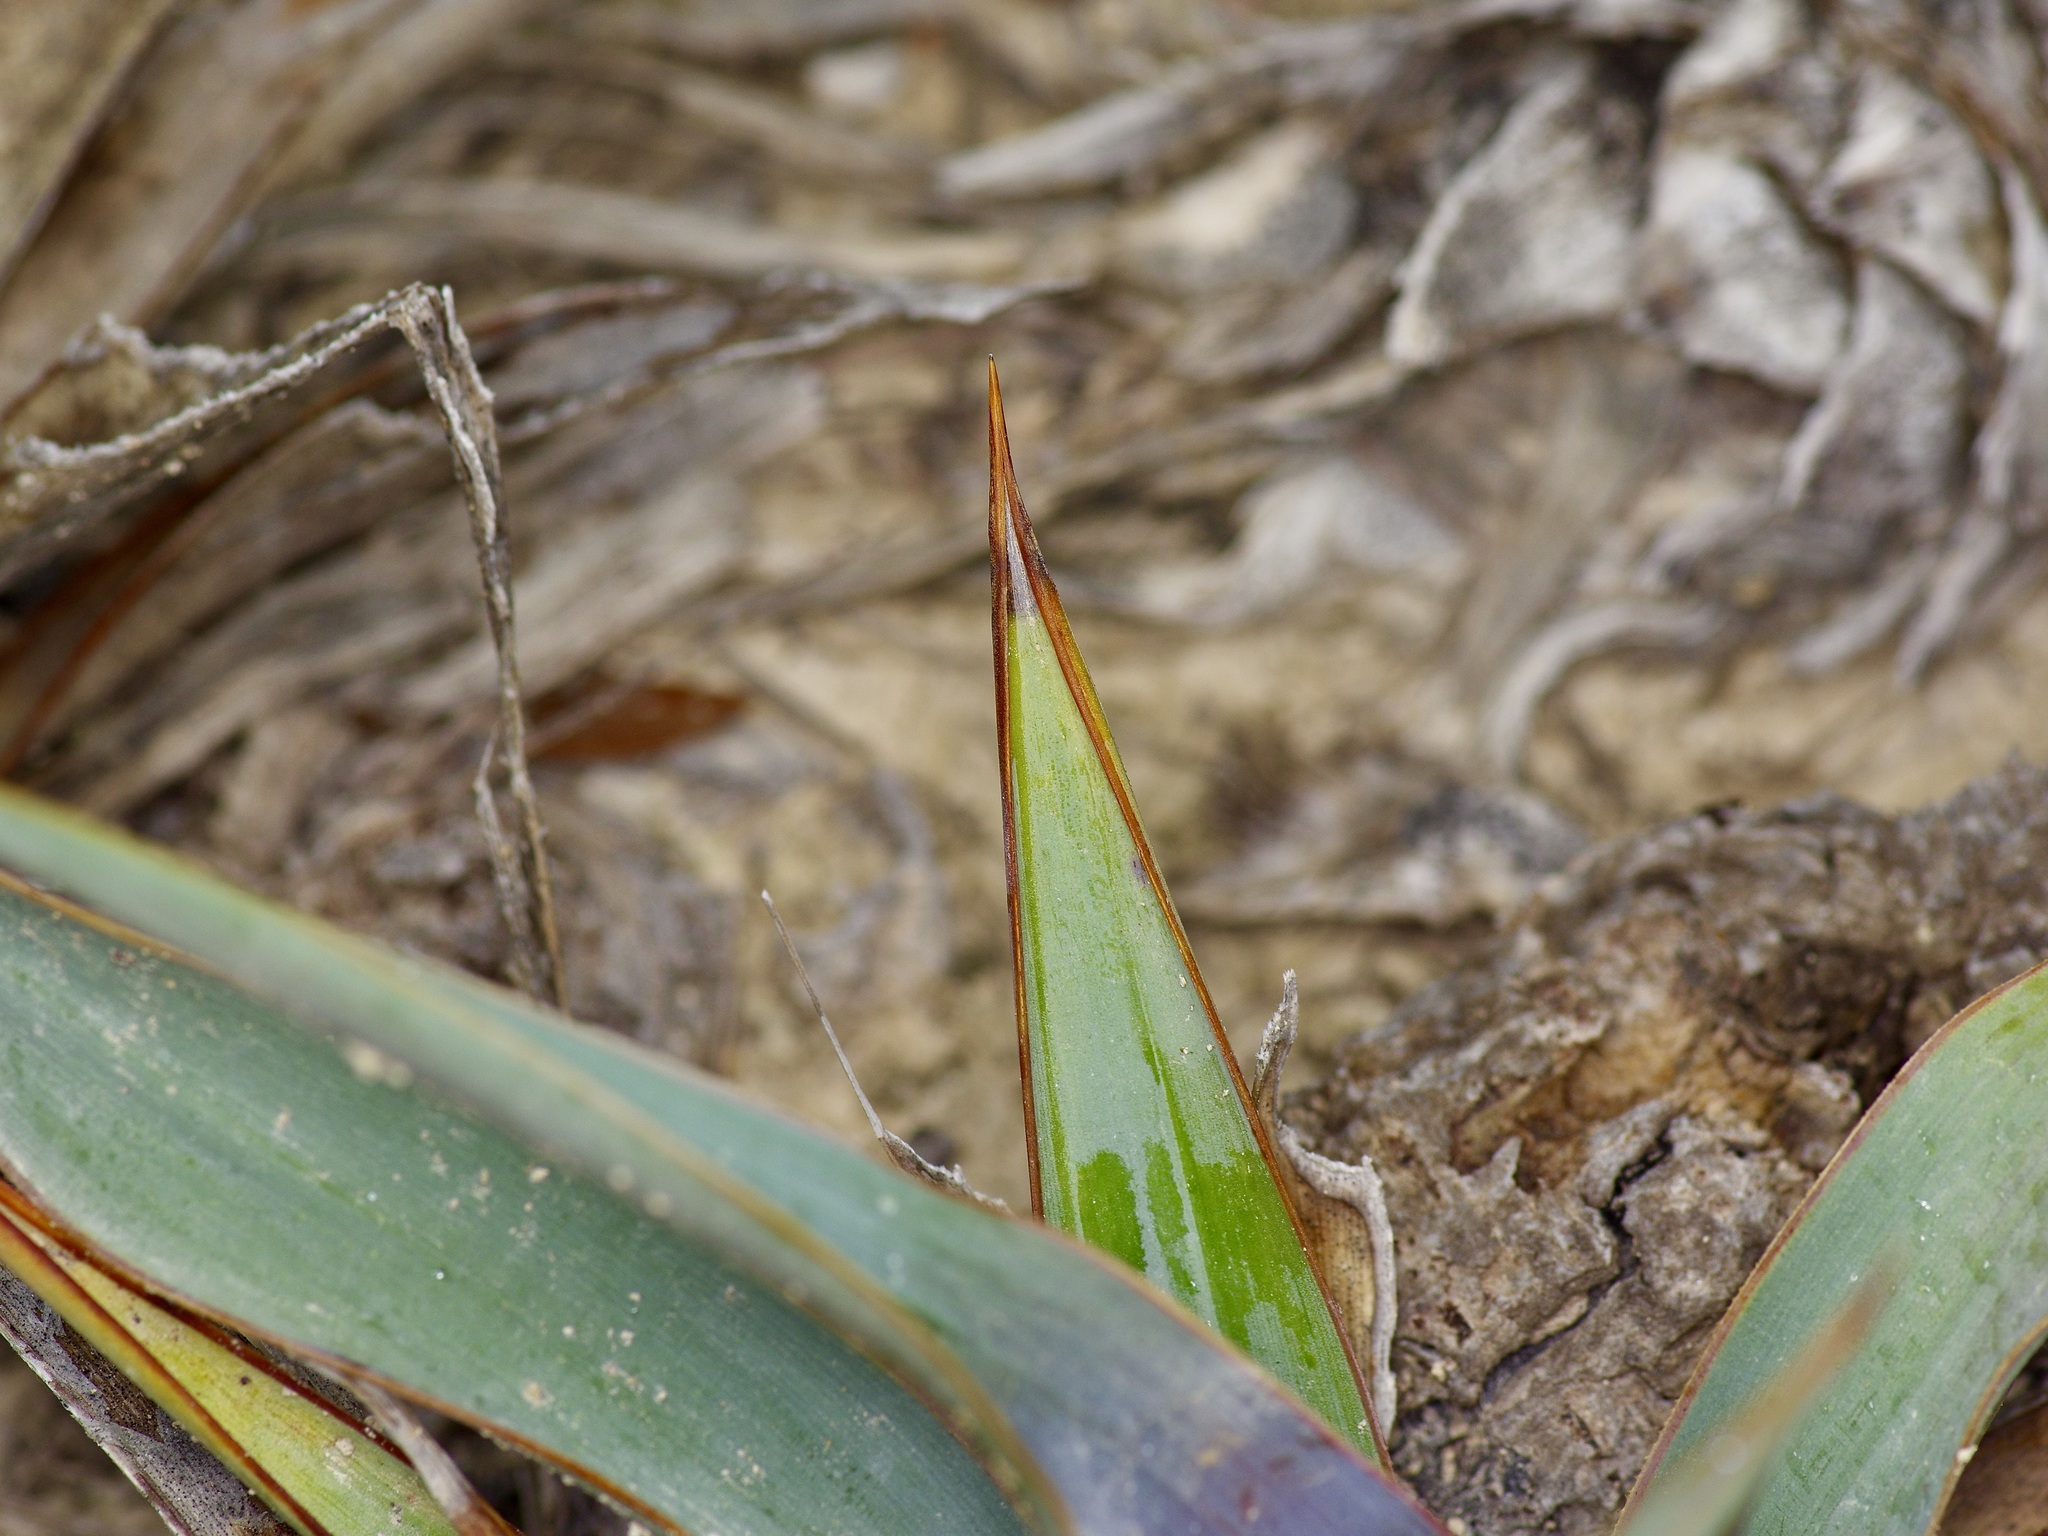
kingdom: Plantae
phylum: Tracheophyta
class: Liliopsida
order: Asparagales
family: Asparagaceae
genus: Yucca
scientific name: Yucca pallida
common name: Pale leaf yucca
